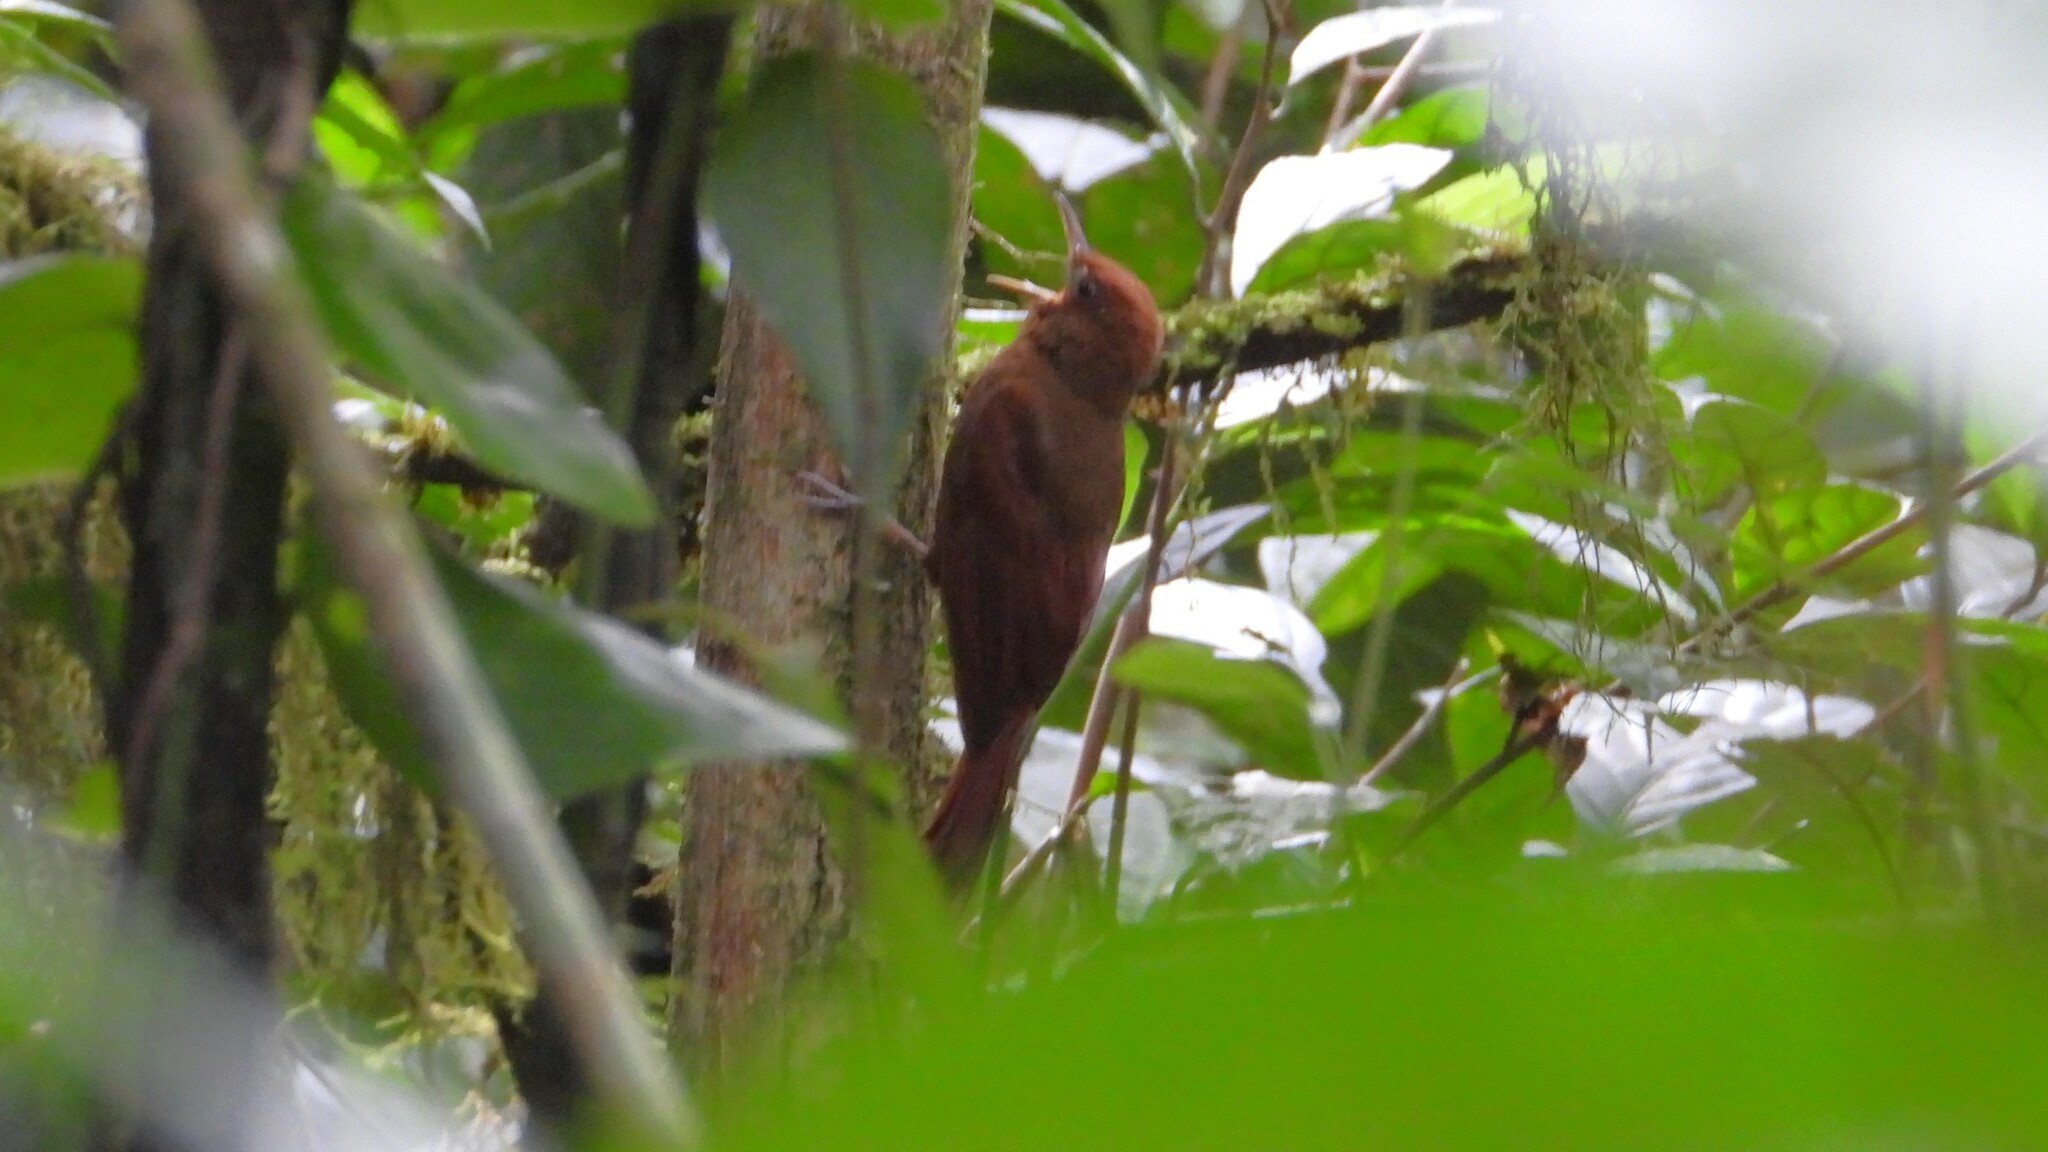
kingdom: Animalia
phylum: Chordata
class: Aves
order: Passeriformes
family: Furnariidae
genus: Dendrocincla
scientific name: Dendrocincla homochroa
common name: Ruddy woodcreeper
